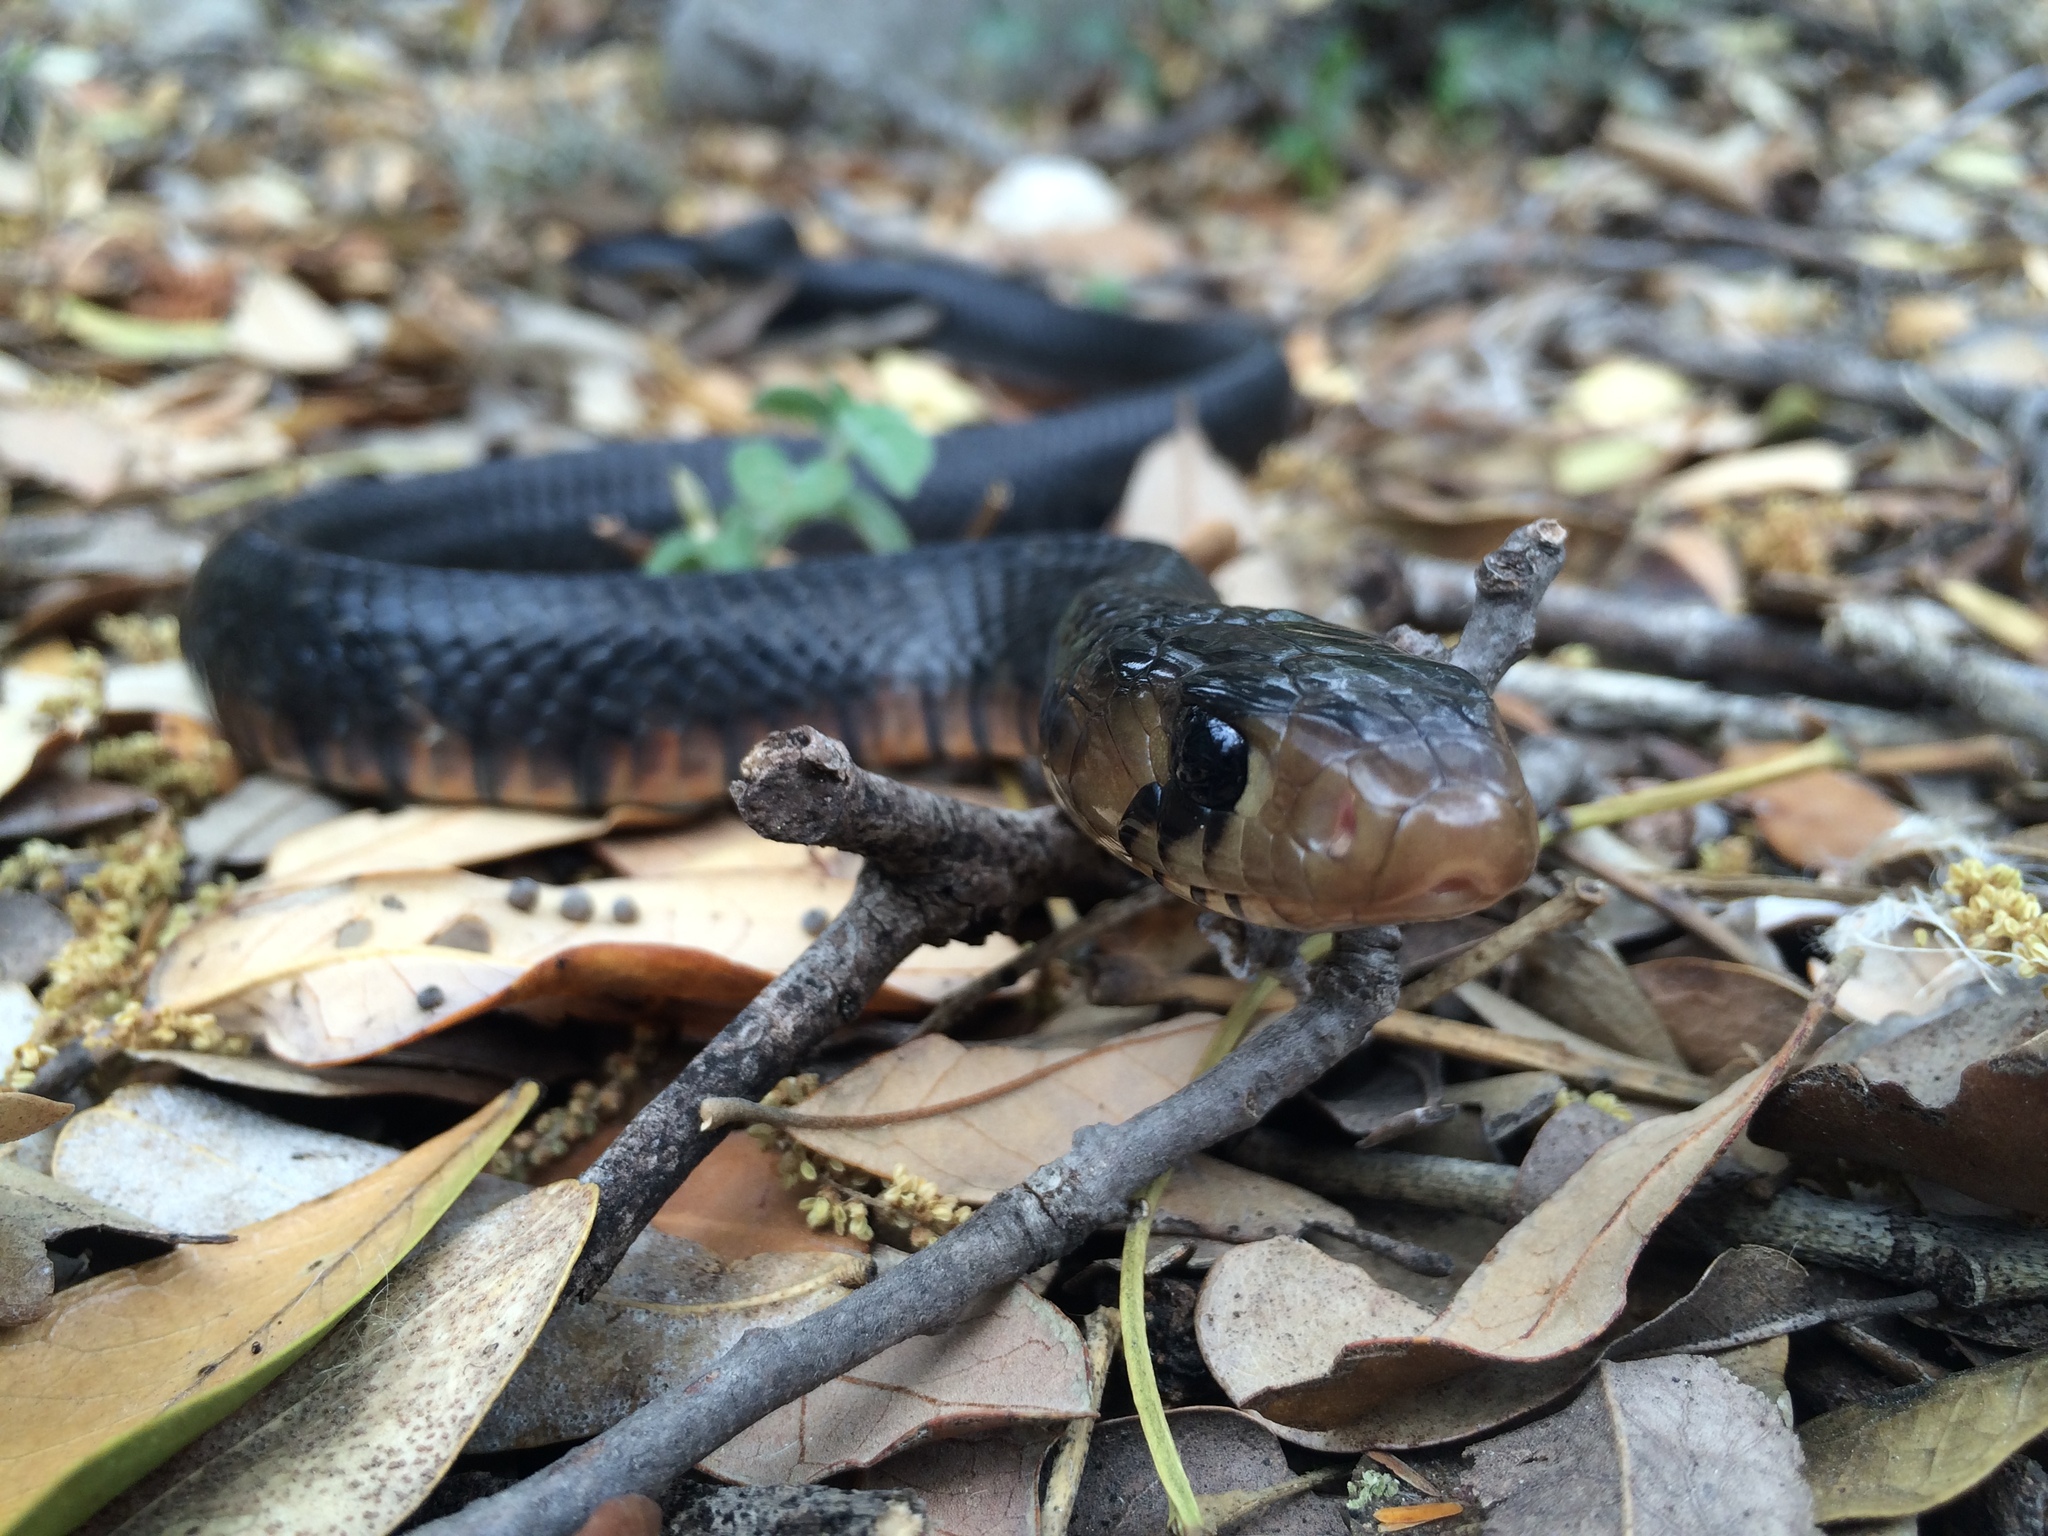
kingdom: Animalia
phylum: Chordata
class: Squamata
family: Colubridae
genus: Drymarchon
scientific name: Drymarchon melanurus
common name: Central american indigo snake
